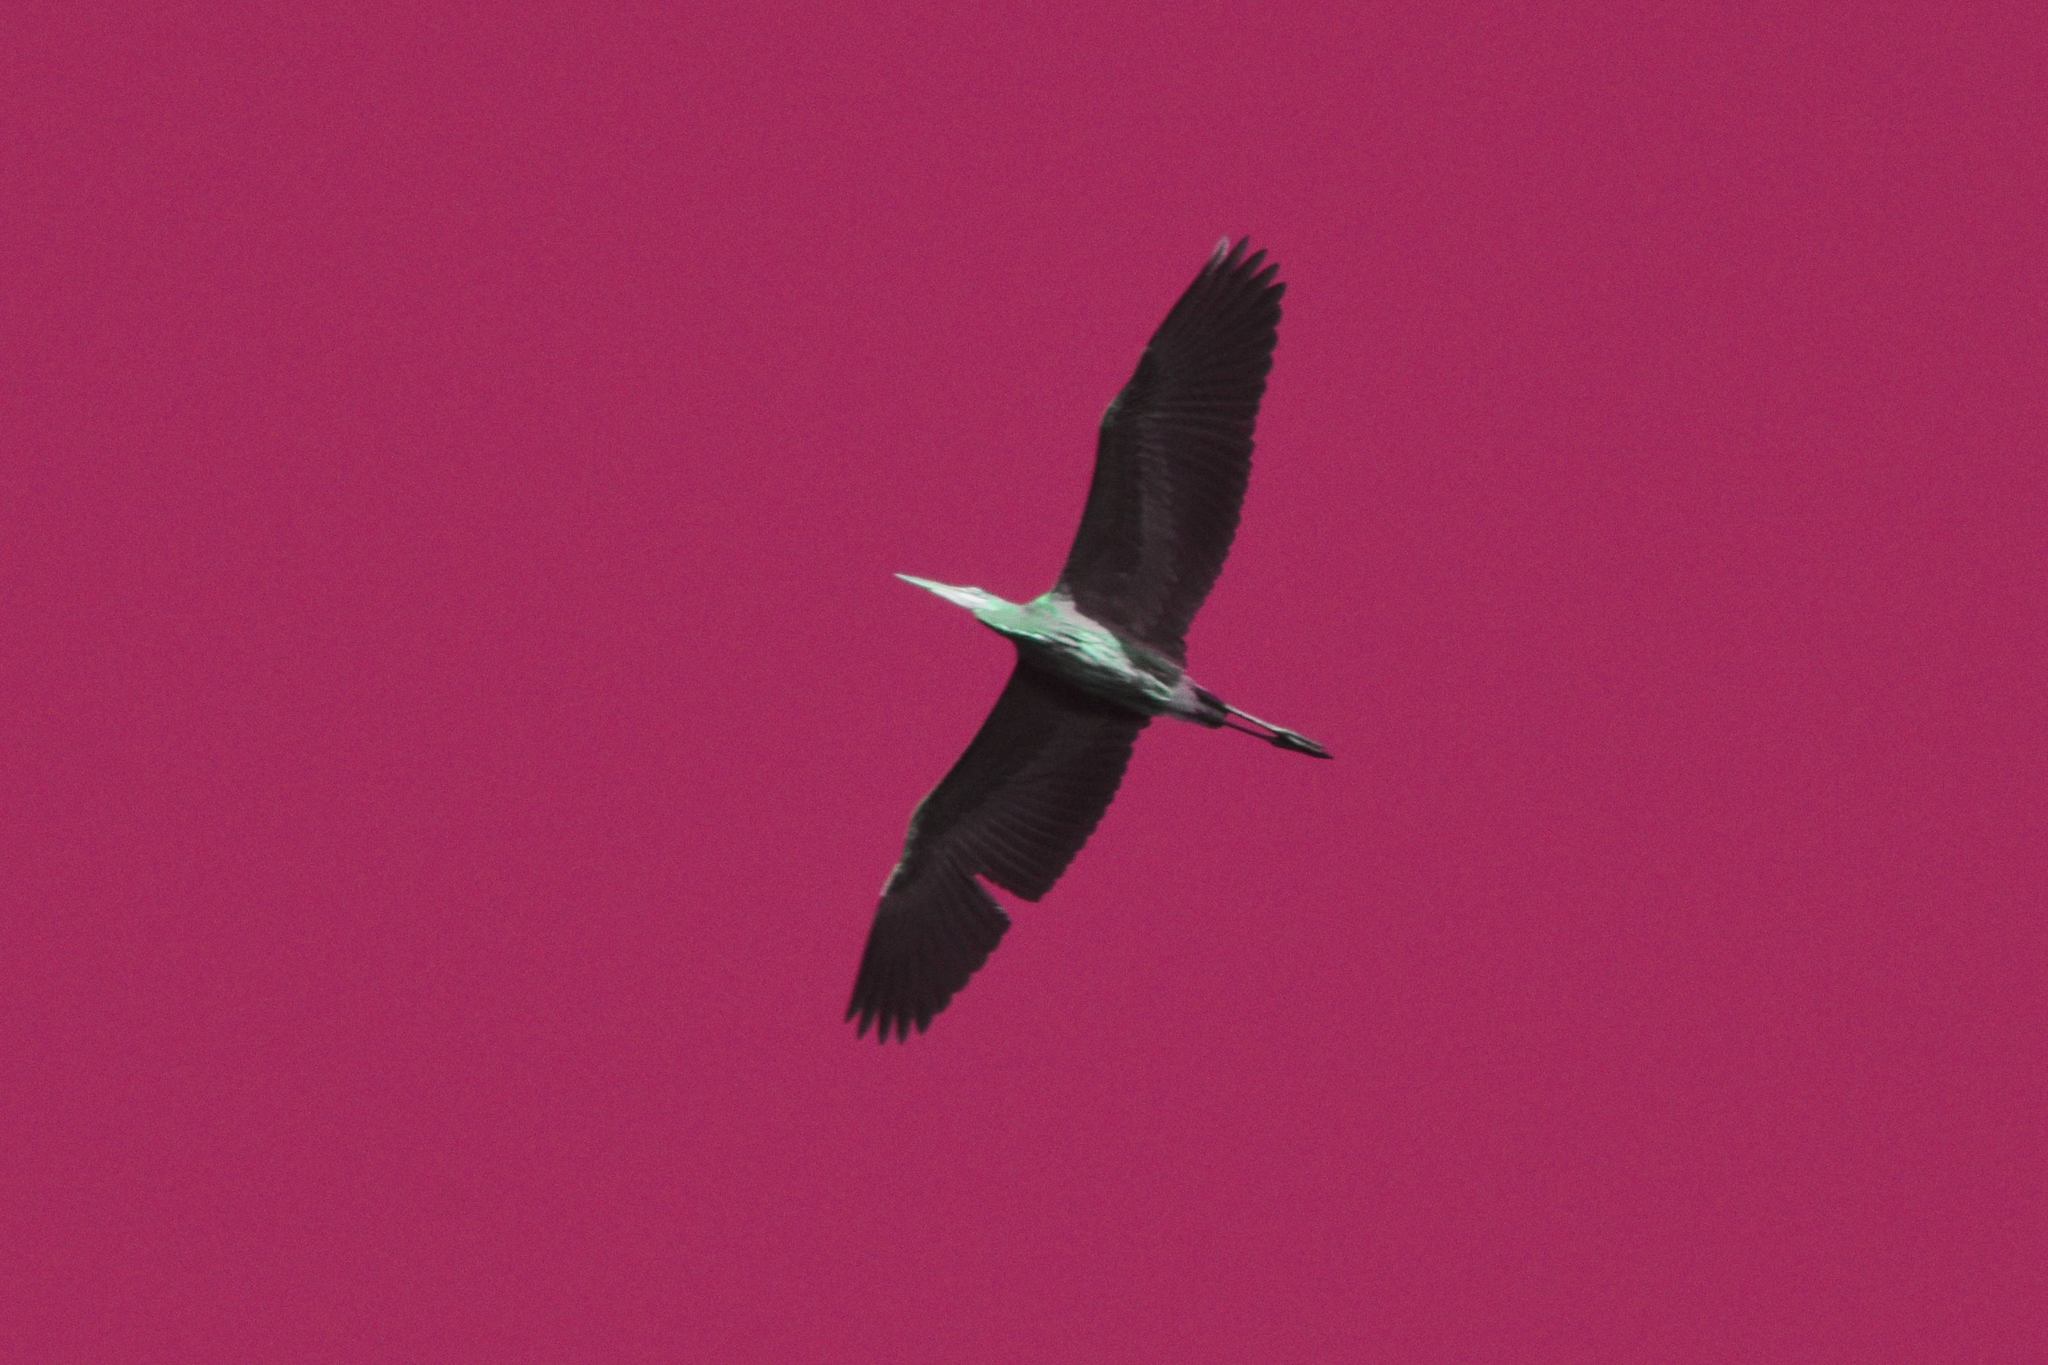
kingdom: Animalia
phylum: Chordata
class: Aves
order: Pelecaniformes
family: Ardeidae
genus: Ardea
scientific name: Ardea herodias
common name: Great blue heron
